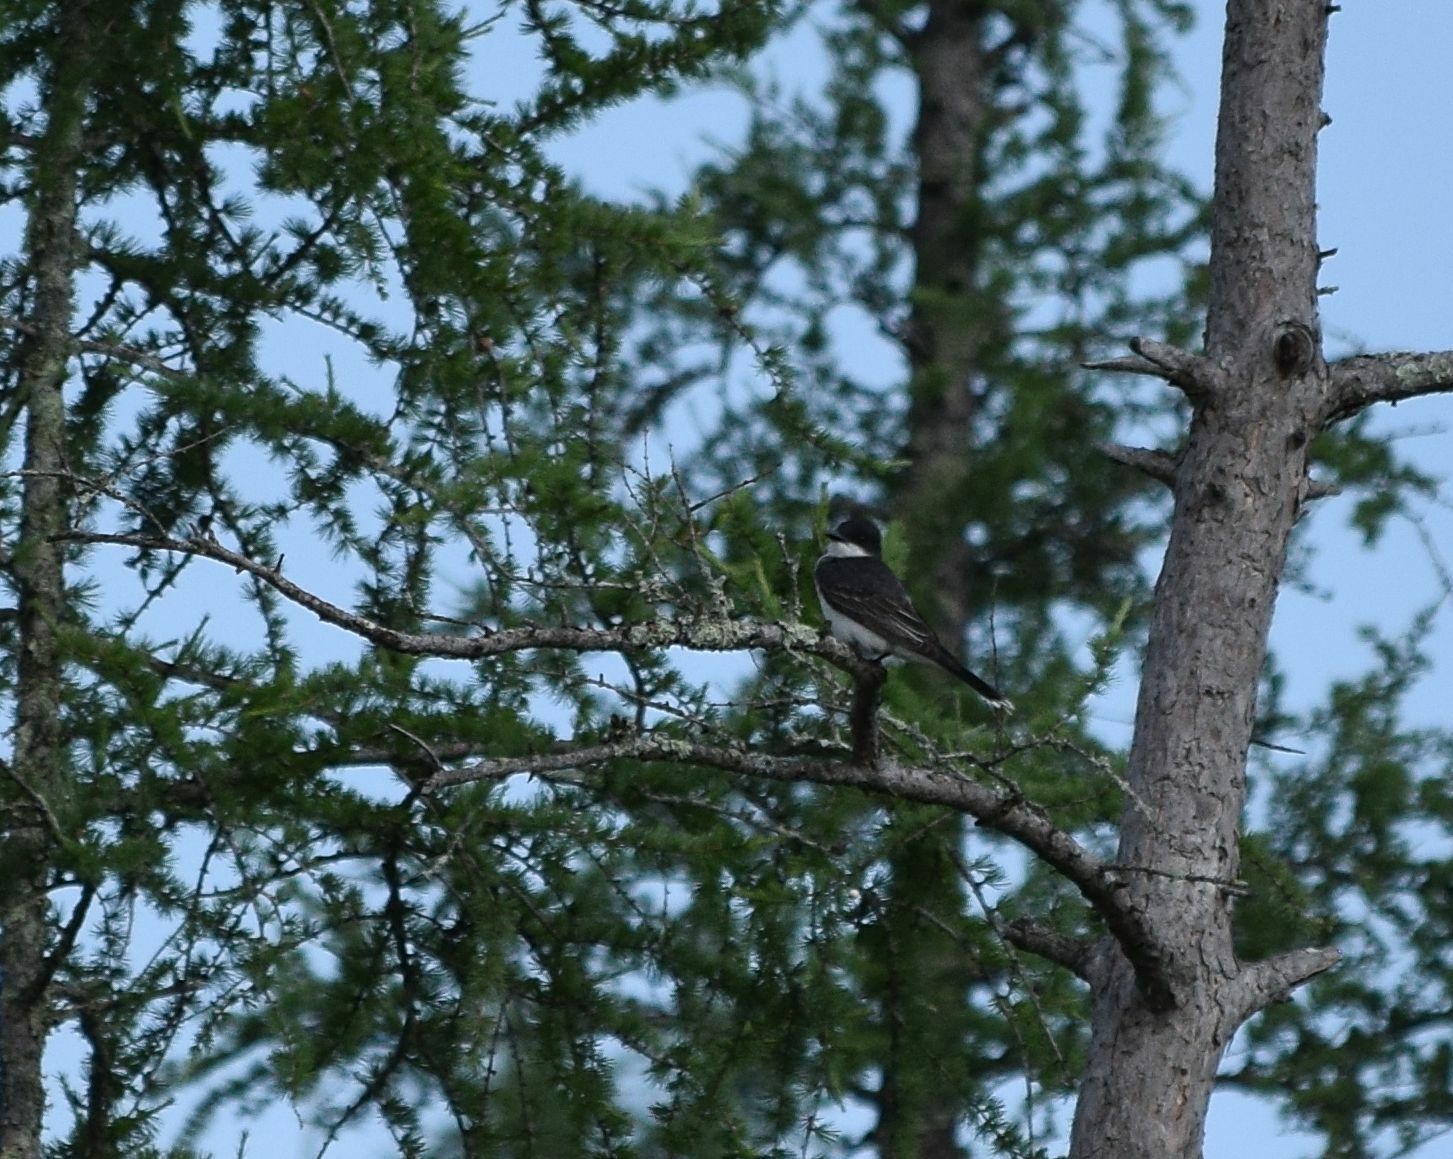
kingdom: Animalia
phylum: Chordata
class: Aves
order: Passeriformes
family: Tyrannidae
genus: Tyrannus
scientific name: Tyrannus tyrannus
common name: Eastern kingbird
